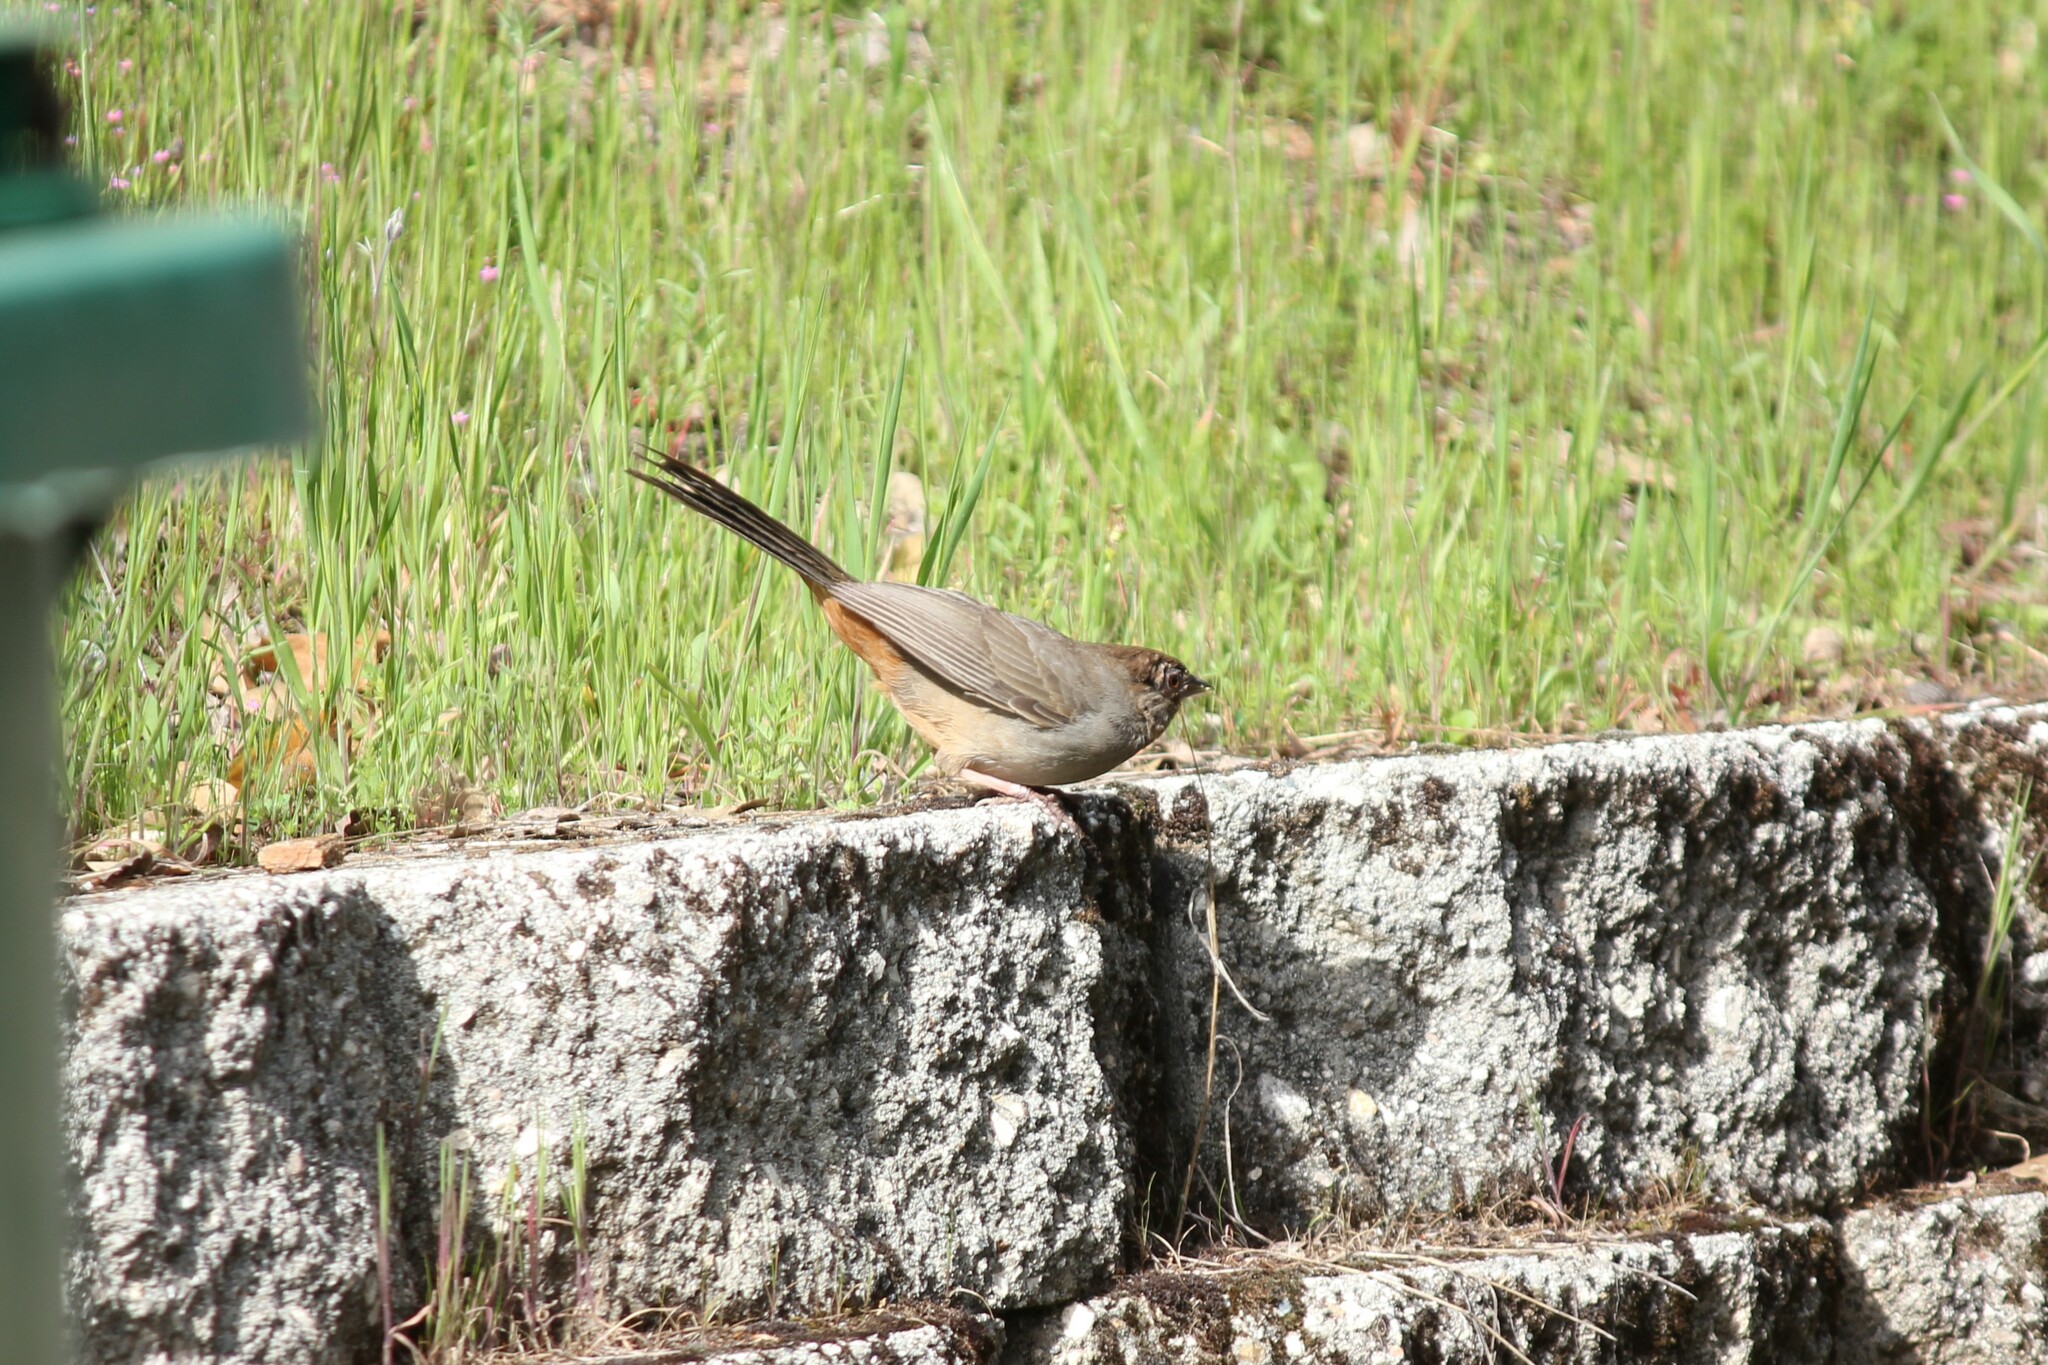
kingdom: Animalia
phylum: Chordata
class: Aves
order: Passeriformes
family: Passerellidae
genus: Melozone
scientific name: Melozone crissalis
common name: California towhee
